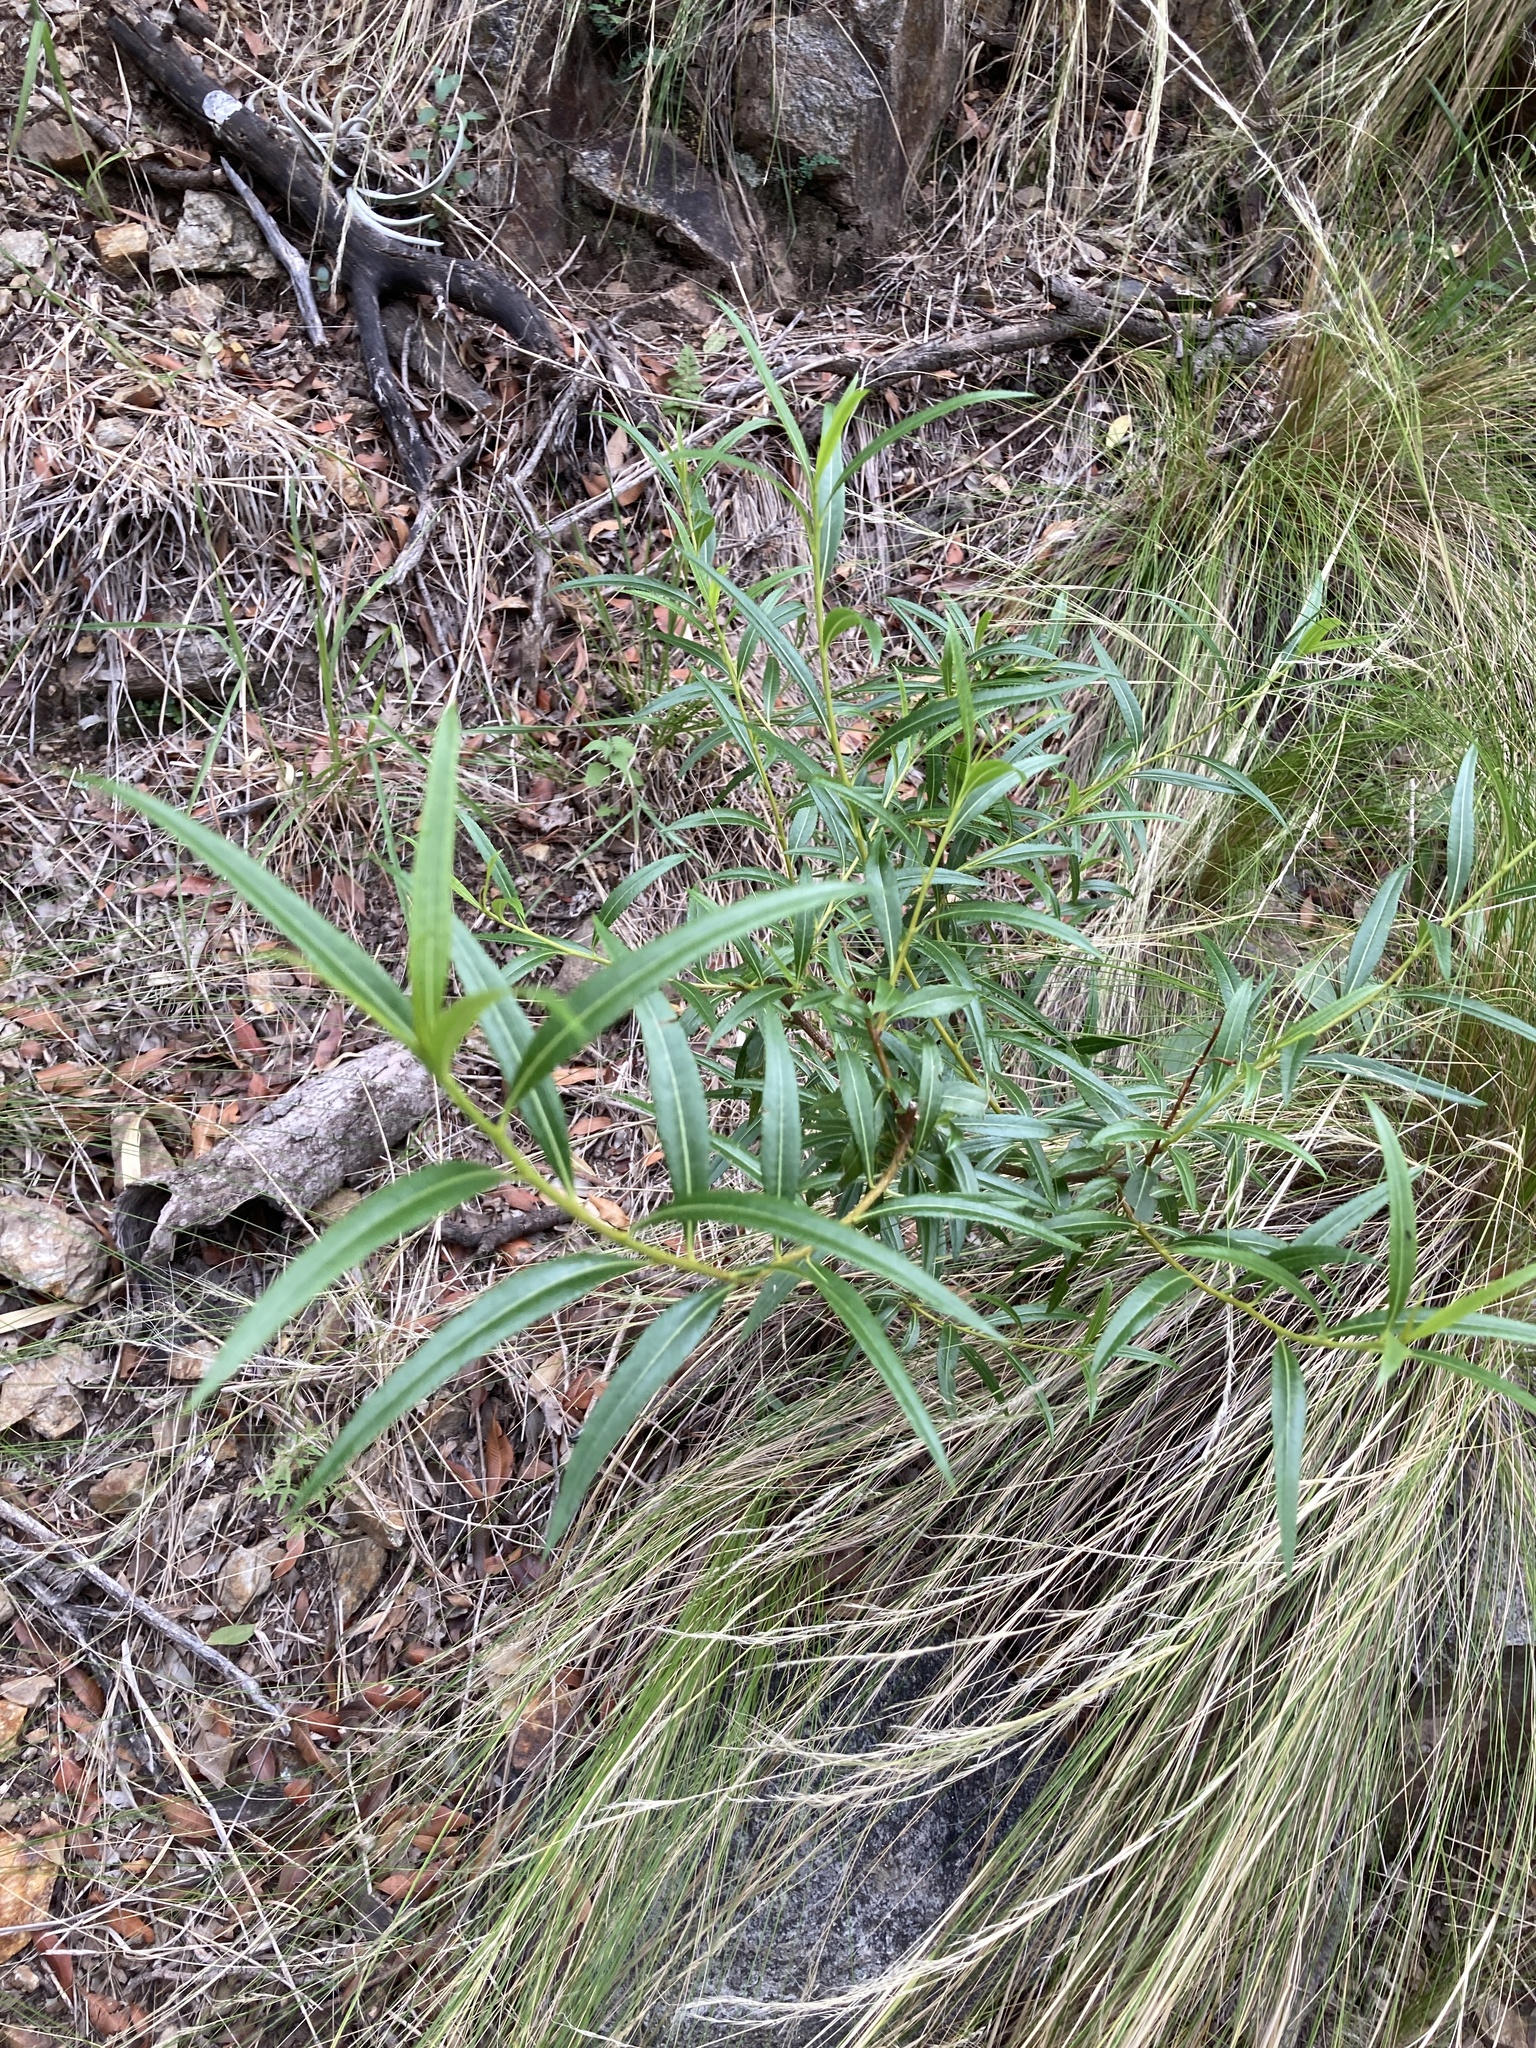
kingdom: Plantae
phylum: Tracheophyta
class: Magnoliopsida
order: Rosales
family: Rosaceae
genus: Kageneckia
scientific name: Kageneckia lanceolata
